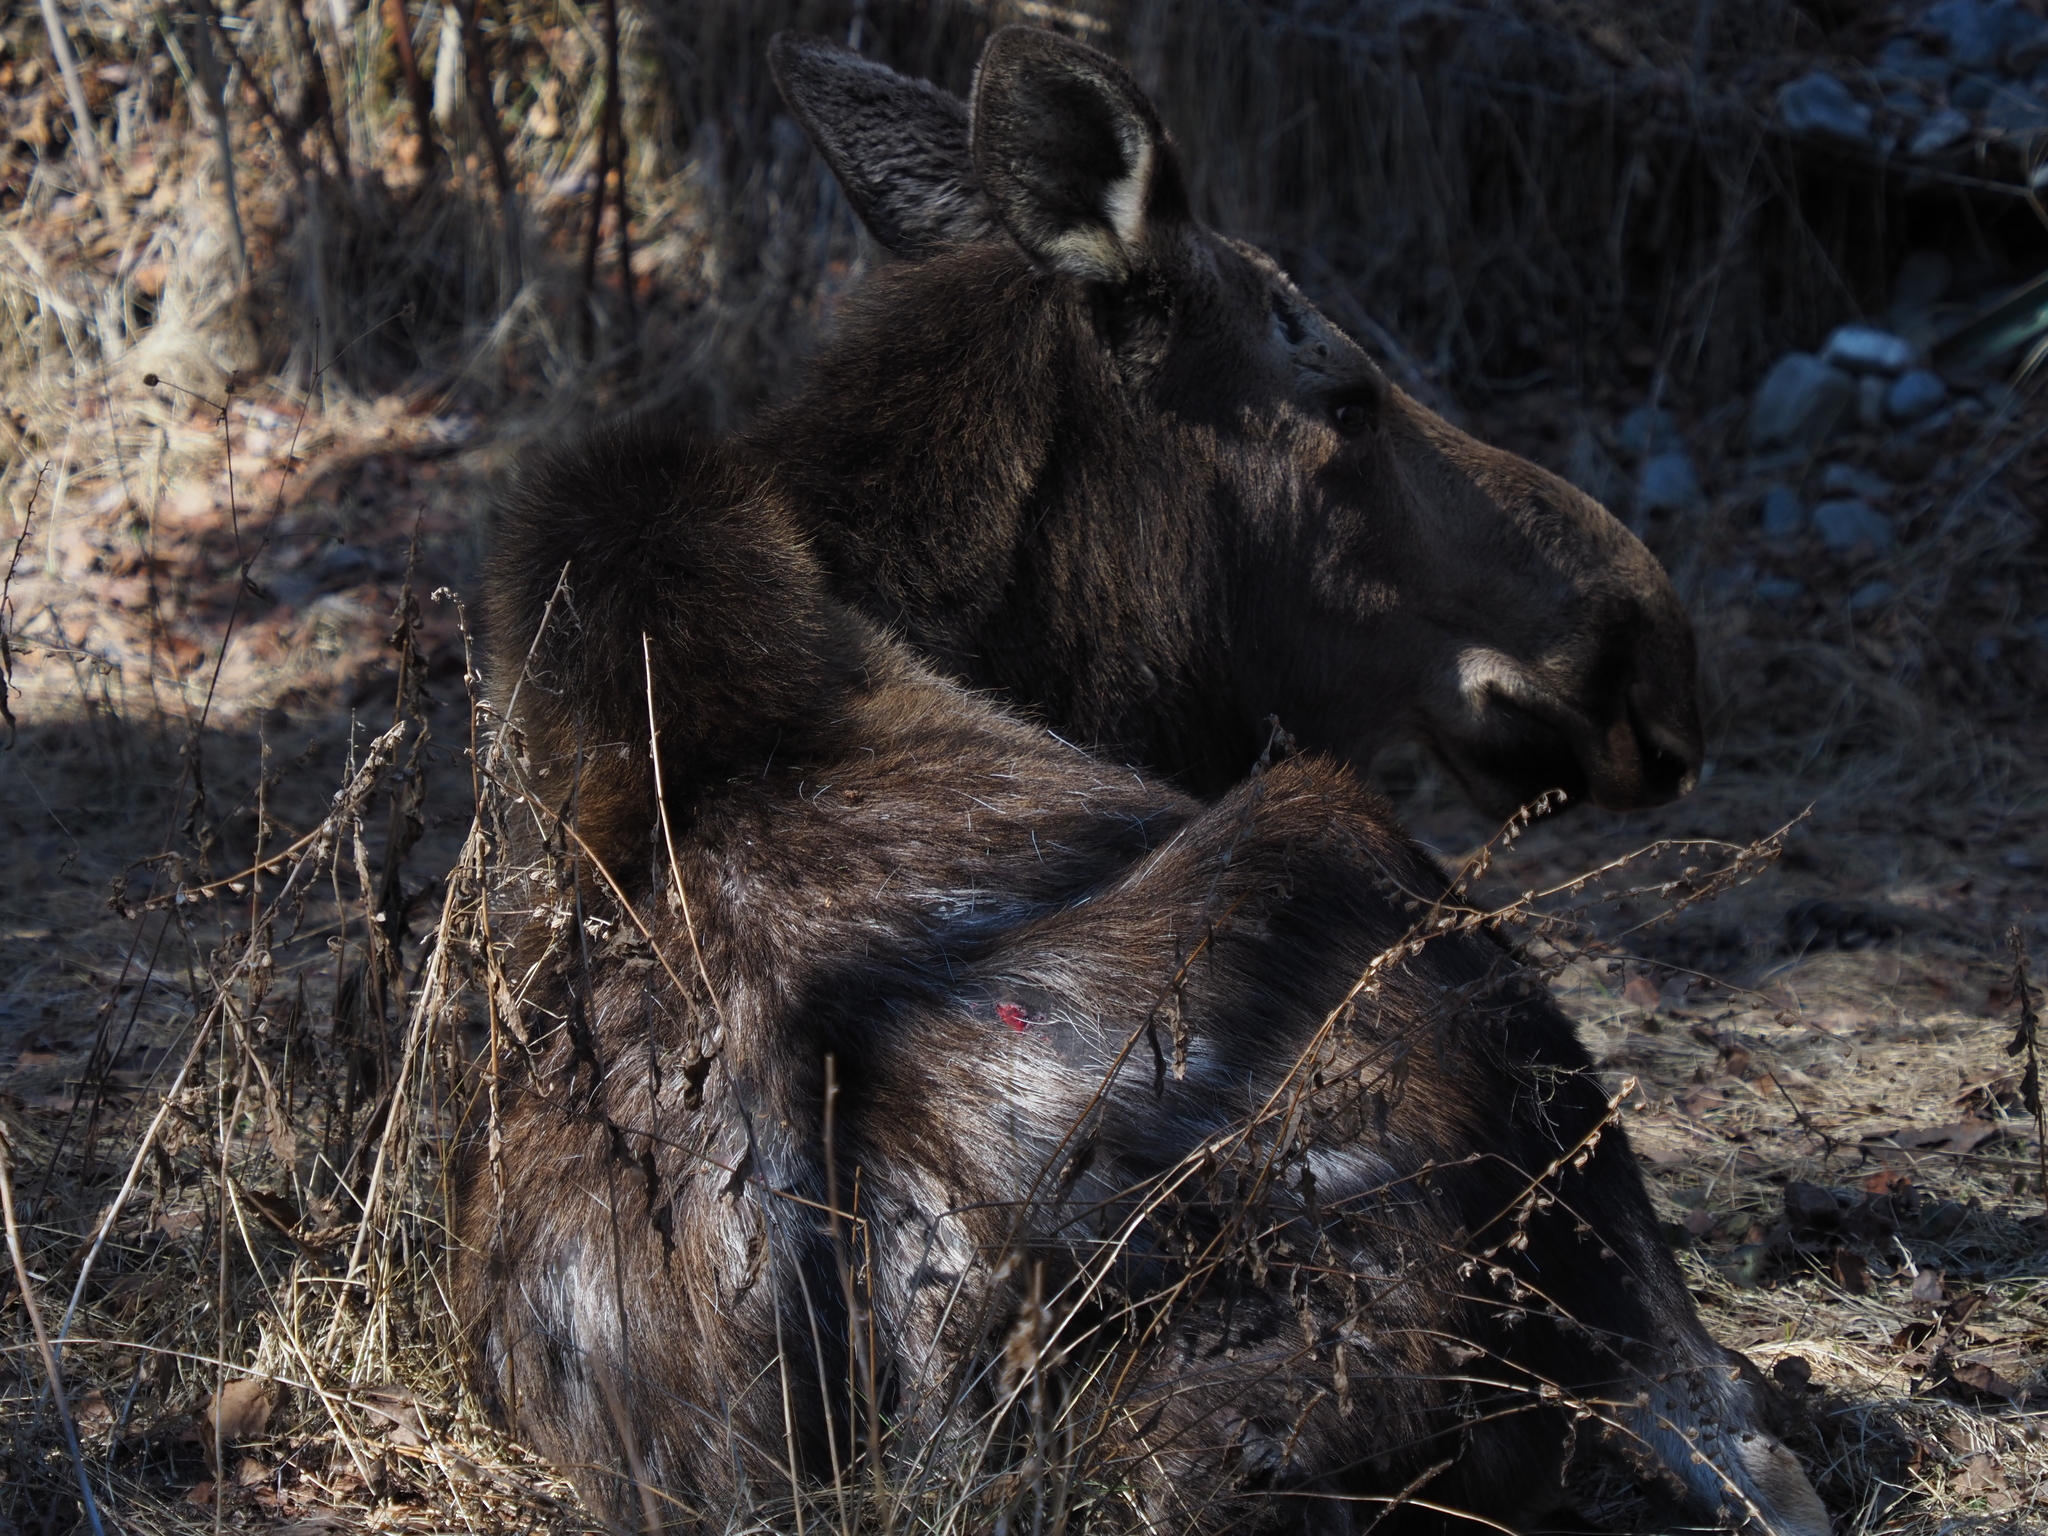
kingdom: Animalia
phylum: Chordata
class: Mammalia
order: Artiodactyla
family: Cervidae
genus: Alces
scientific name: Alces alces
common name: Moose
